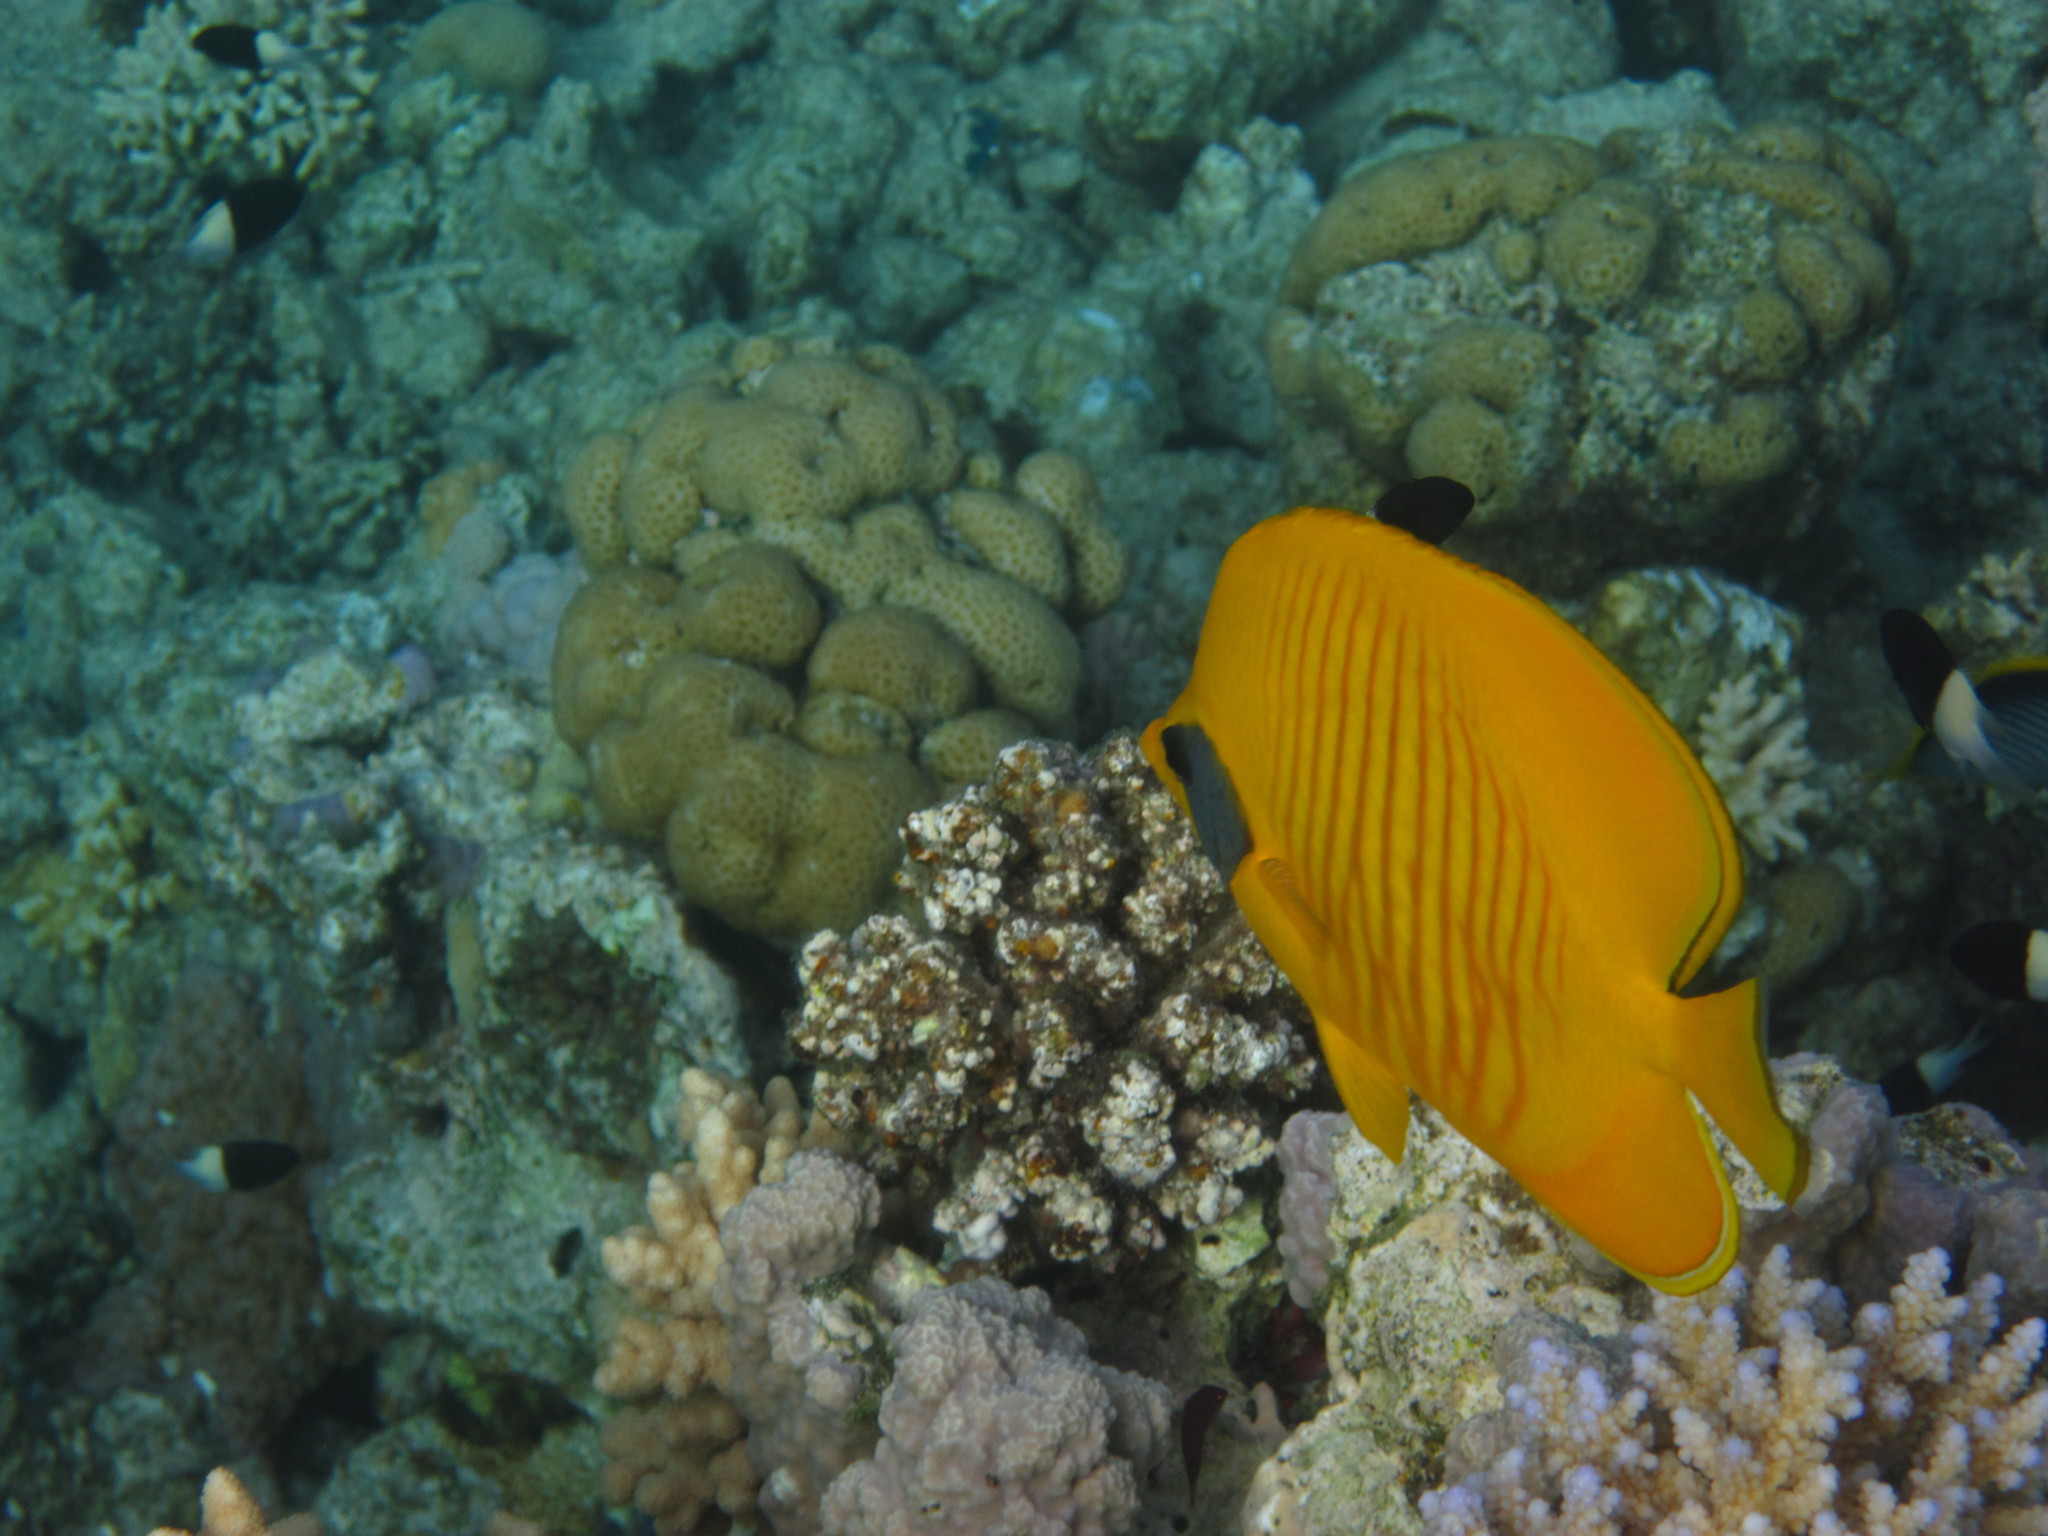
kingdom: Animalia
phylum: Chordata
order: Perciformes
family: Chaetodontidae
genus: Chaetodon
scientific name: Chaetodon semilarvatus
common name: Golden butterflyfish
